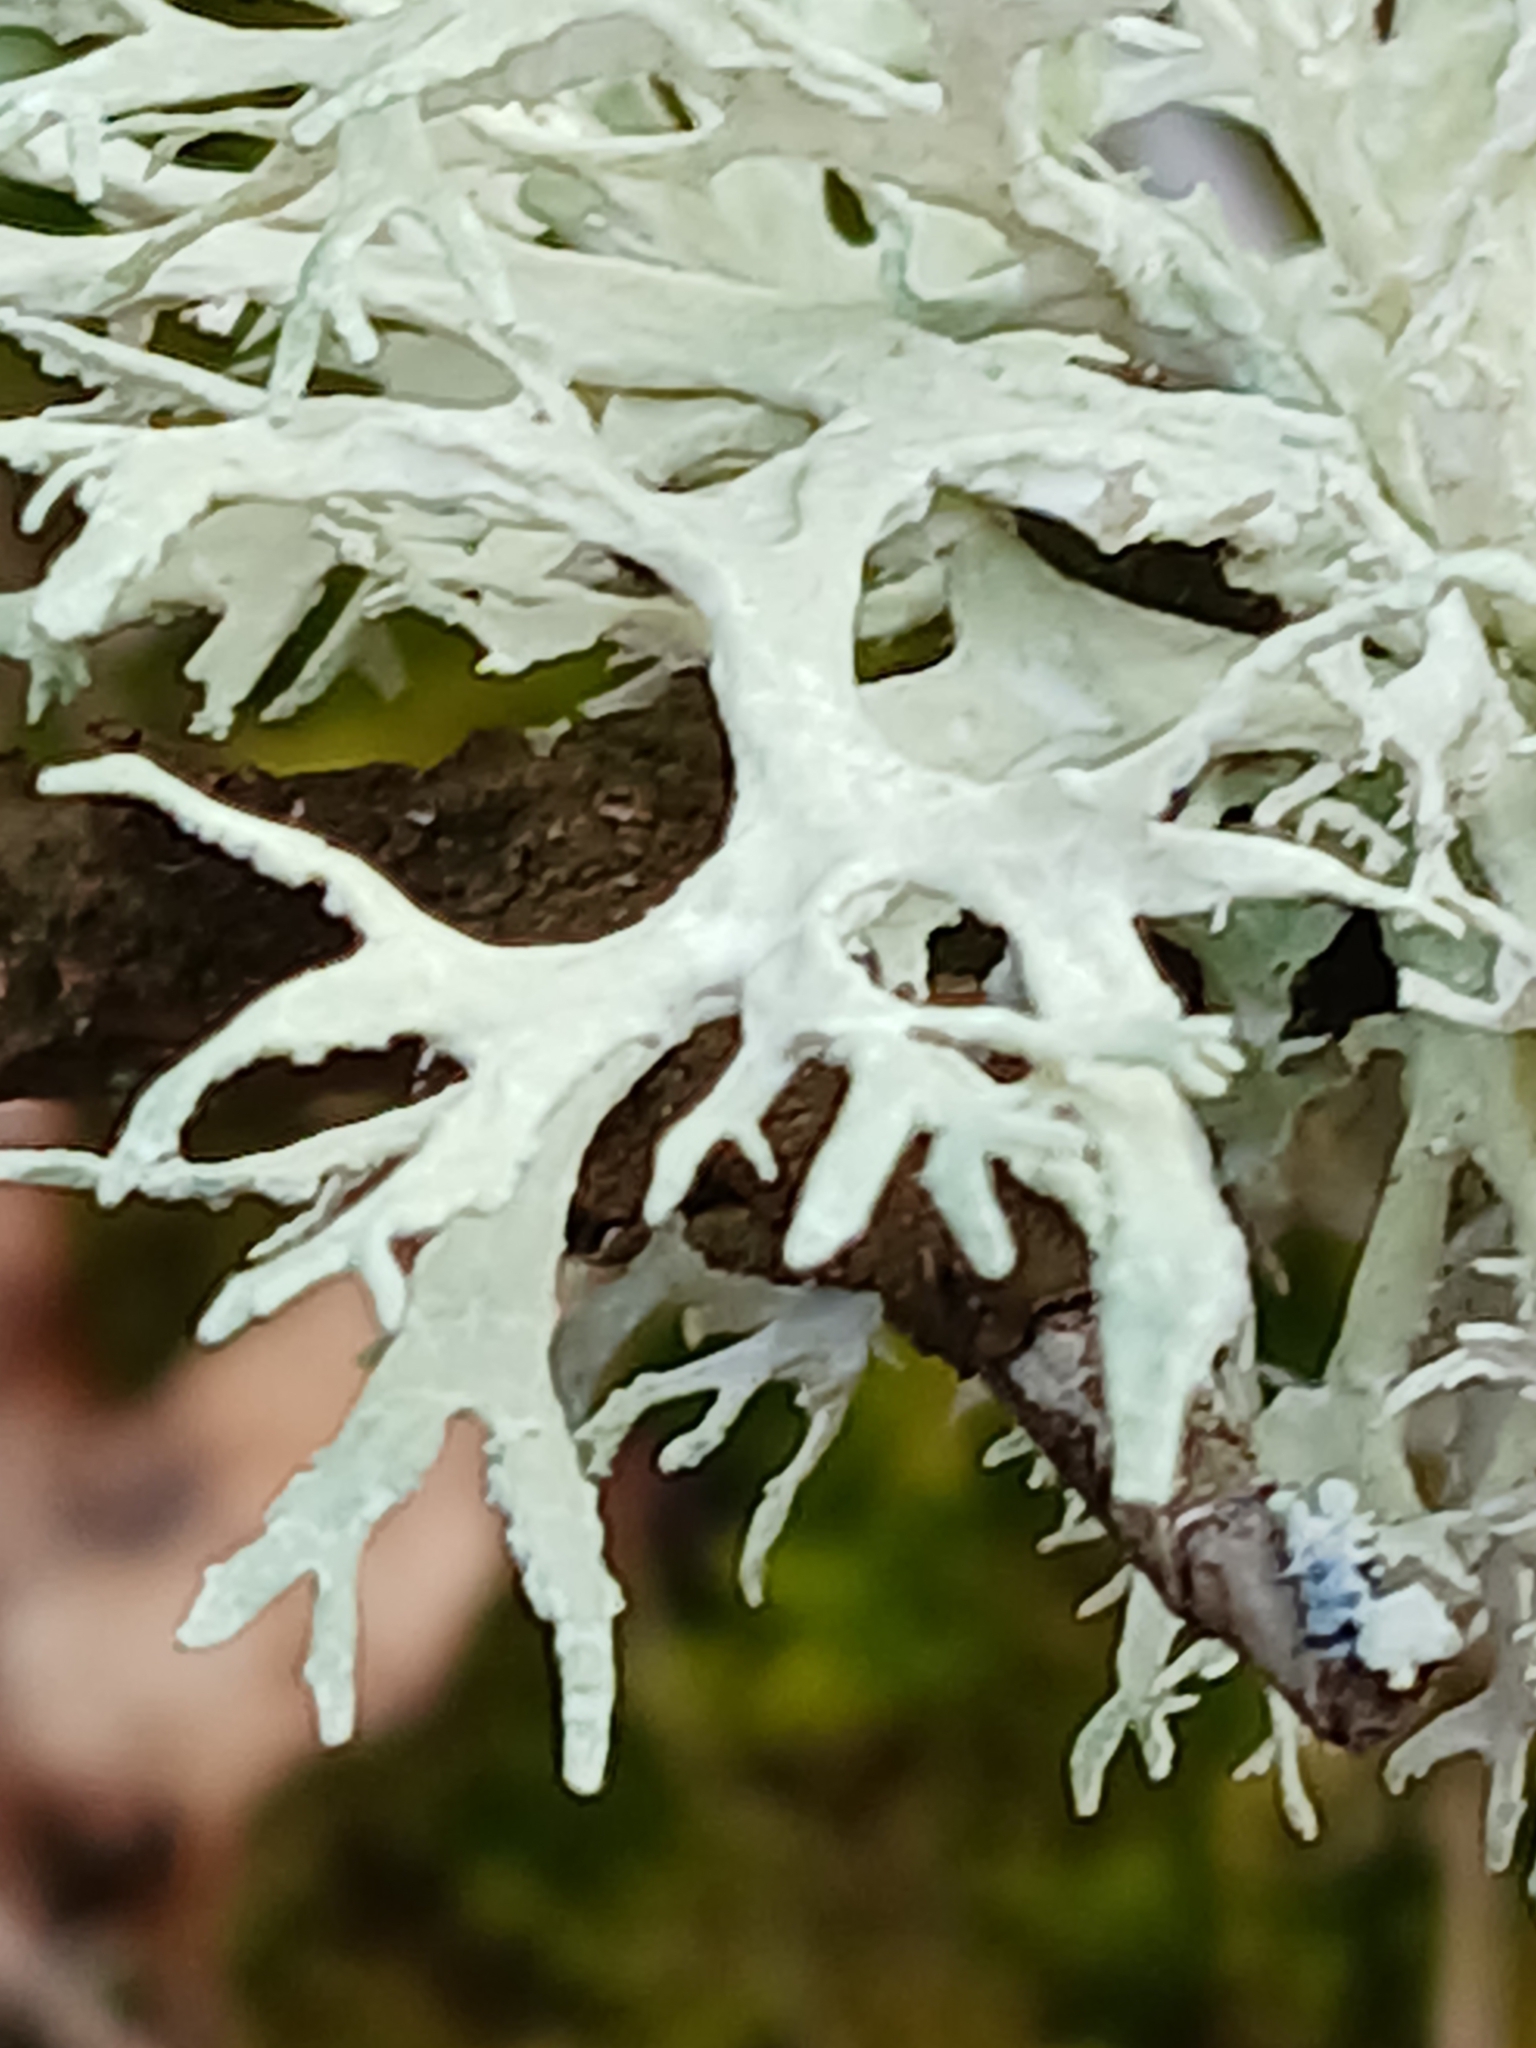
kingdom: Fungi
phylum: Ascomycota
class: Lecanoromycetes
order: Lecanorales
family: Parmeliaceae
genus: Evernia
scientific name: Evernia prunastri
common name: Oak moss
